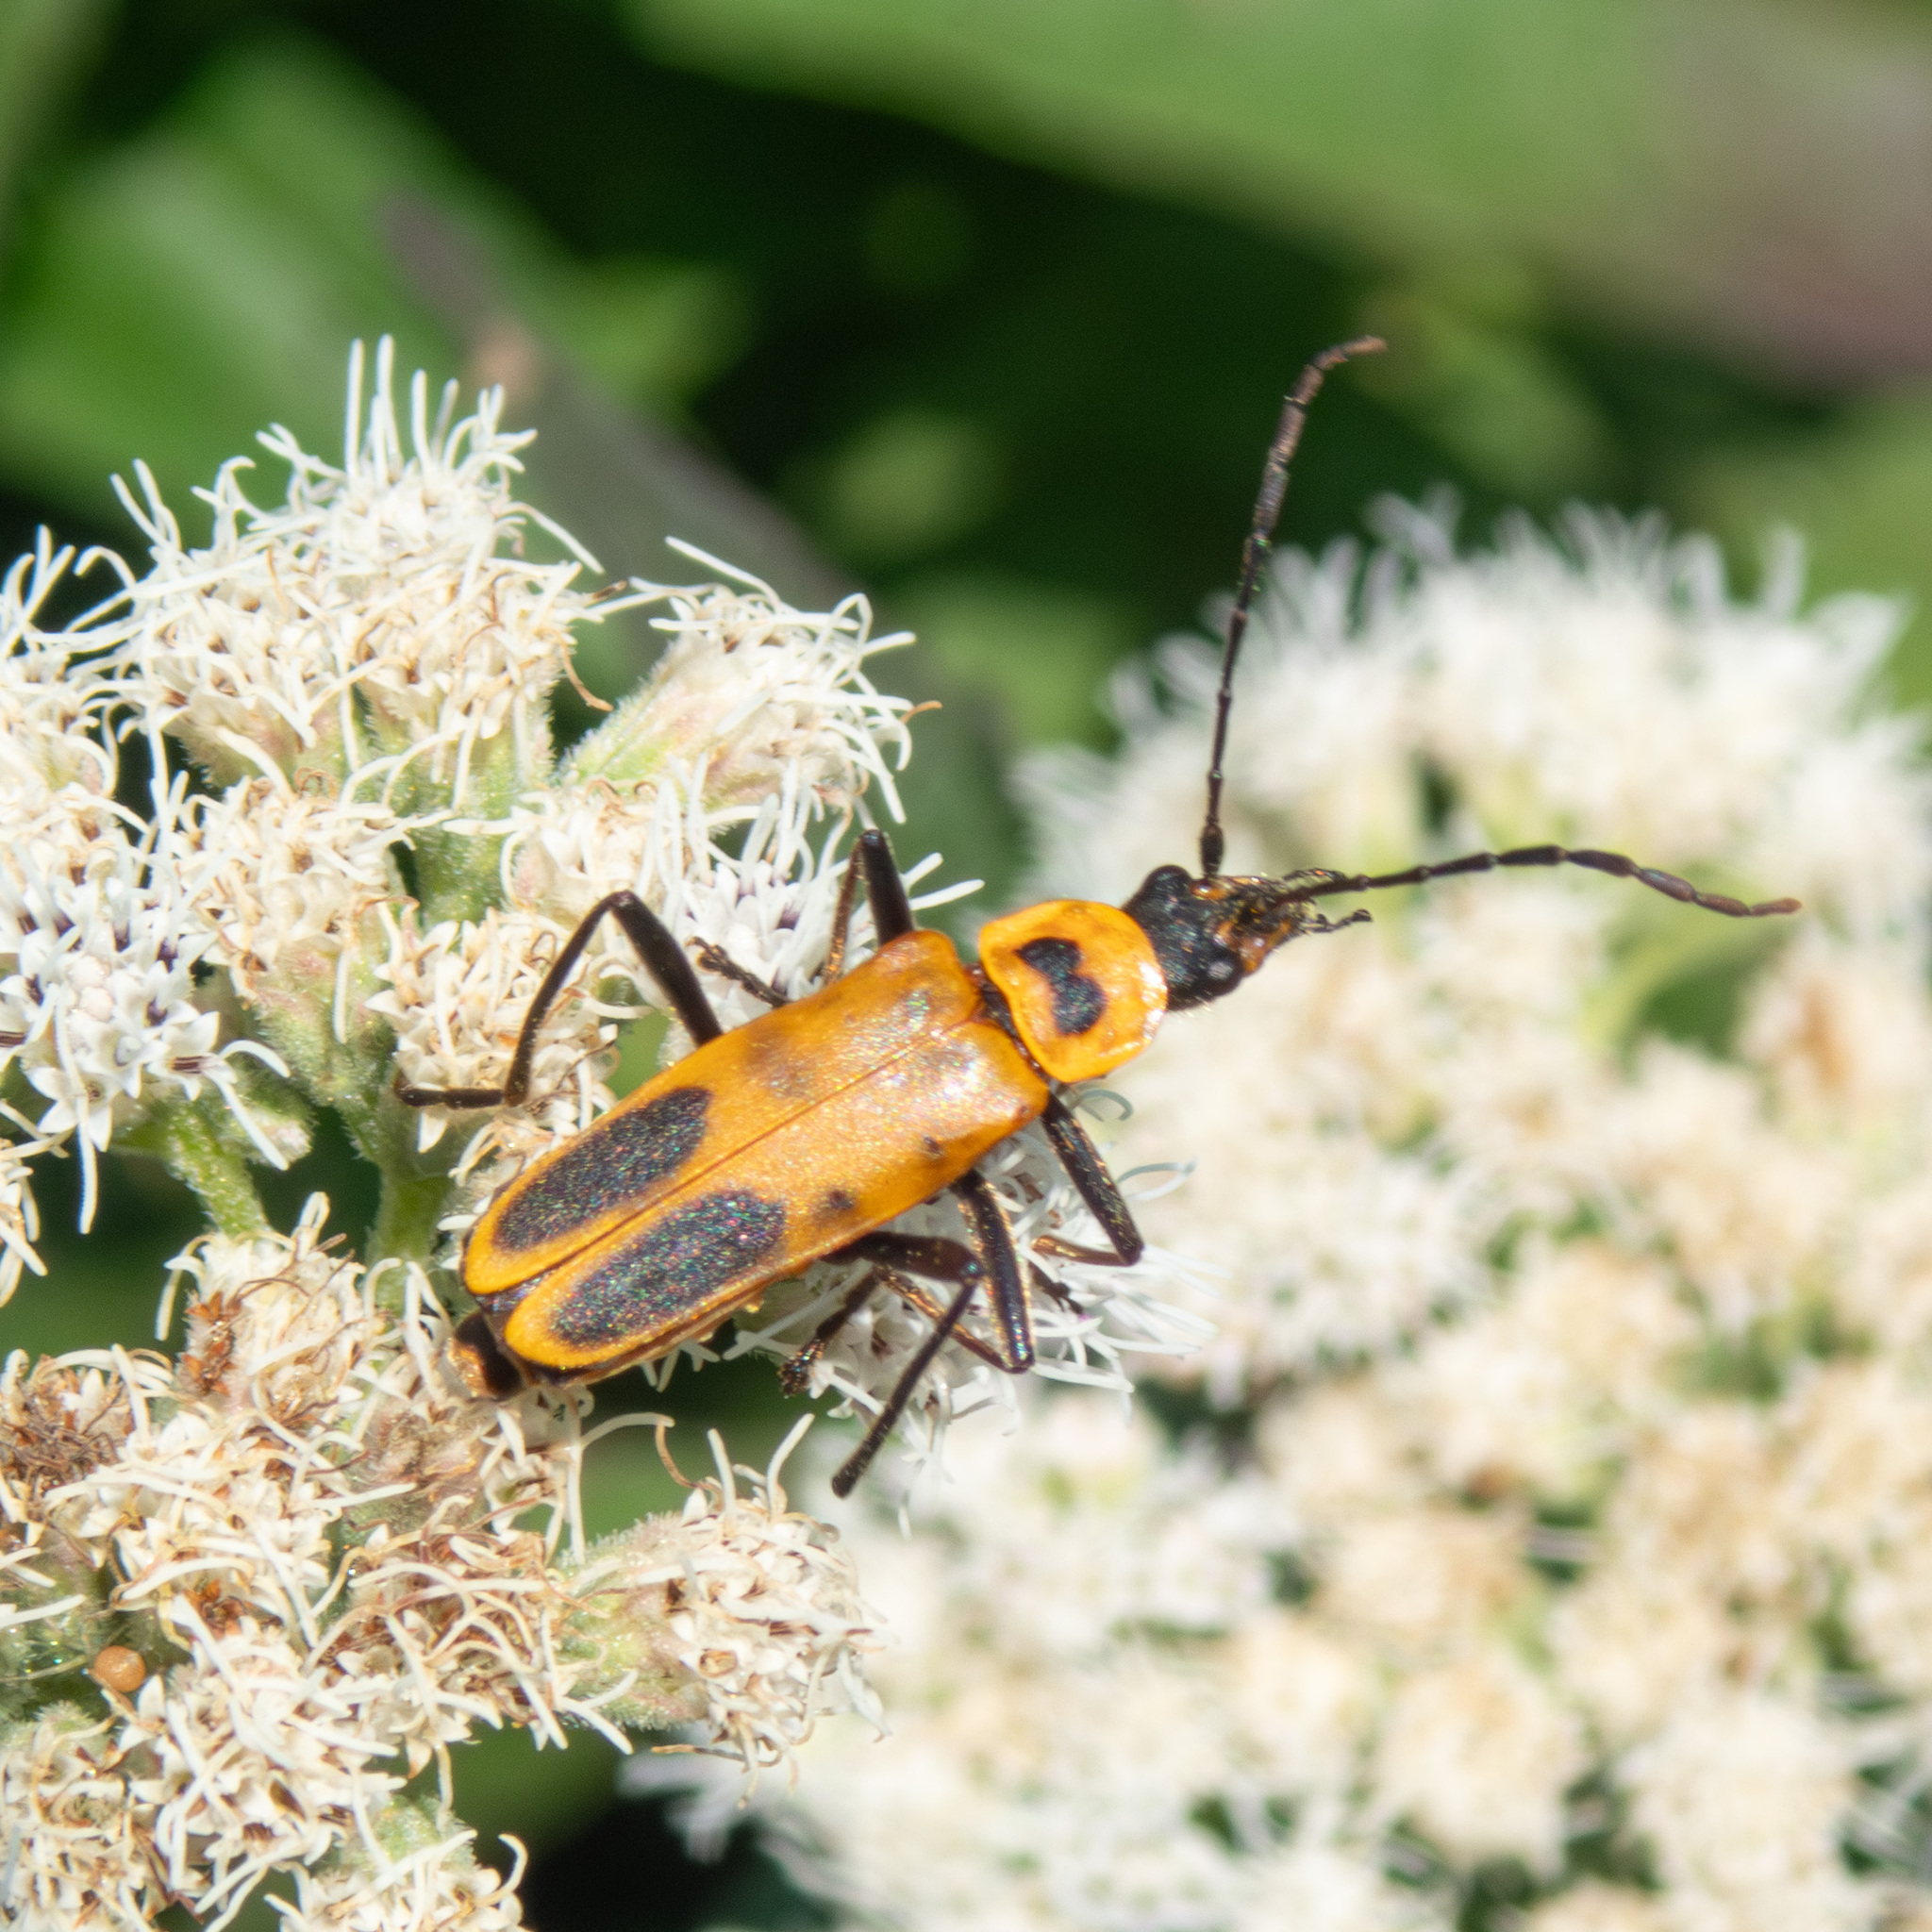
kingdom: Animalia
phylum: Arthropoda
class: Insecta
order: Coleoptera
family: Cantharidae
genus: Chauliognathus
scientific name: Chauliognathus pensylvanicus
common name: Goldenrod soldier beetle
